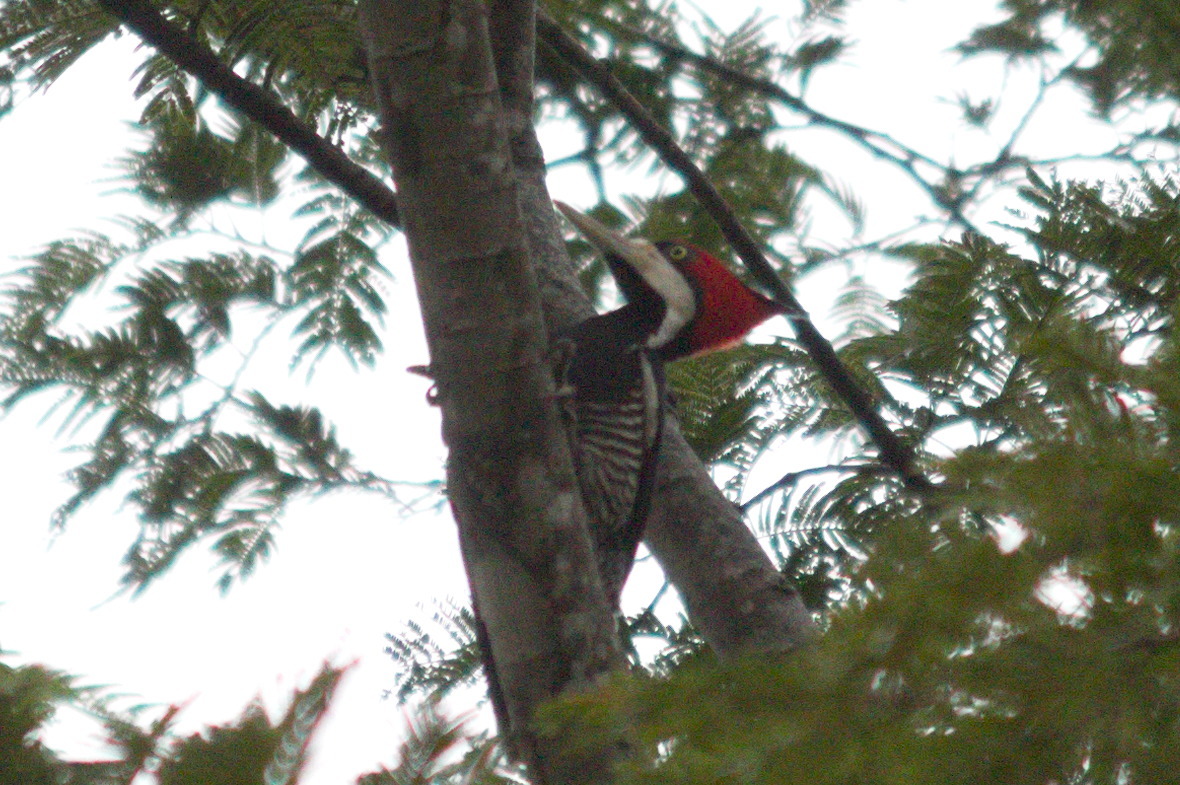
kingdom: Animalia
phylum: Chordata
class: Aves
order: Piciformes
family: Picidae
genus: Campephilus
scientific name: Campephilus melanoleucos
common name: Crimson-crested woodpecker
